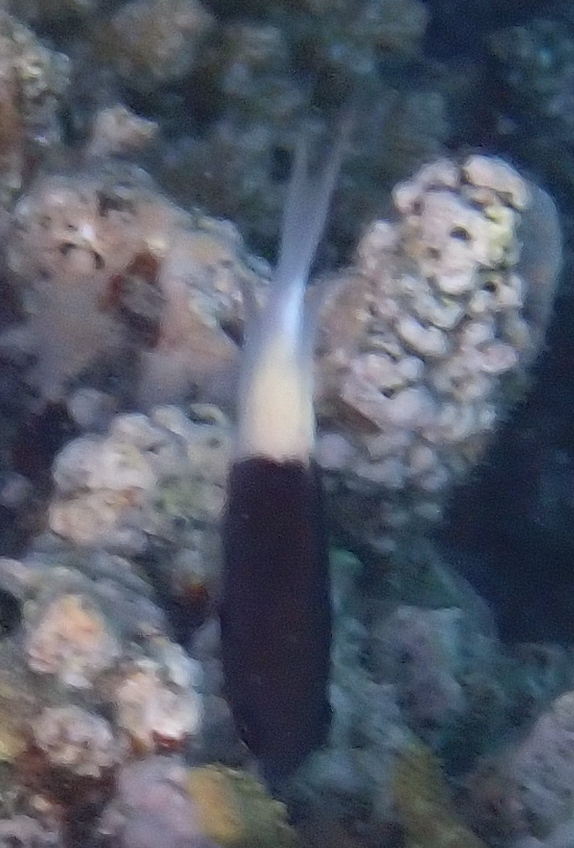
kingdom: Animalia
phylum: Chordata
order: Perciformes
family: Pomacentridae
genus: Chromis
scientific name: Chromis dimidiata
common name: Half-and-half chromis
